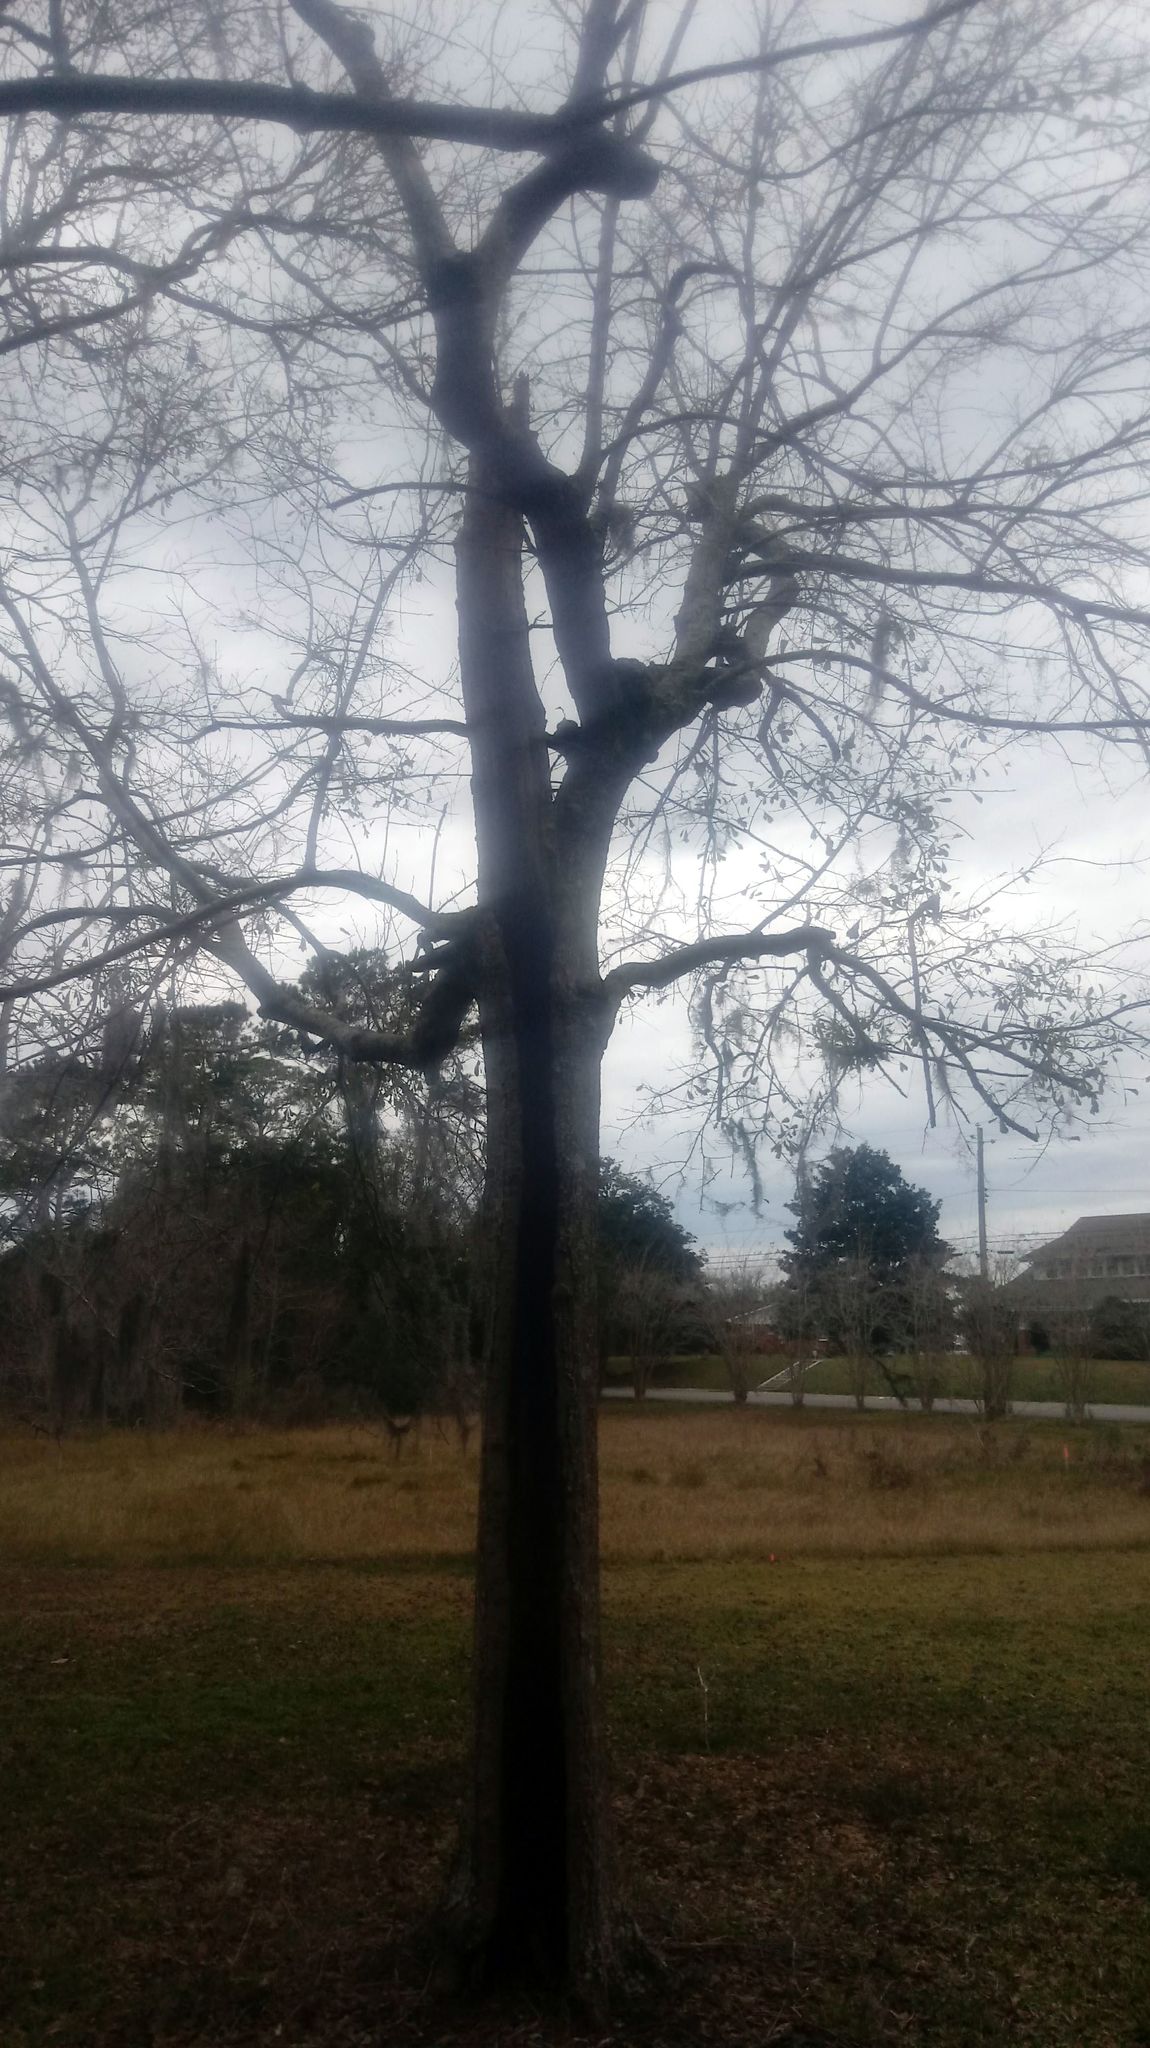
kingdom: Plantae
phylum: Tracheophyta
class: Magnoliopsida
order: Fagales
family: Fagaceae
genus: Quercus
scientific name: Quercus nigra
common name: Water oak
